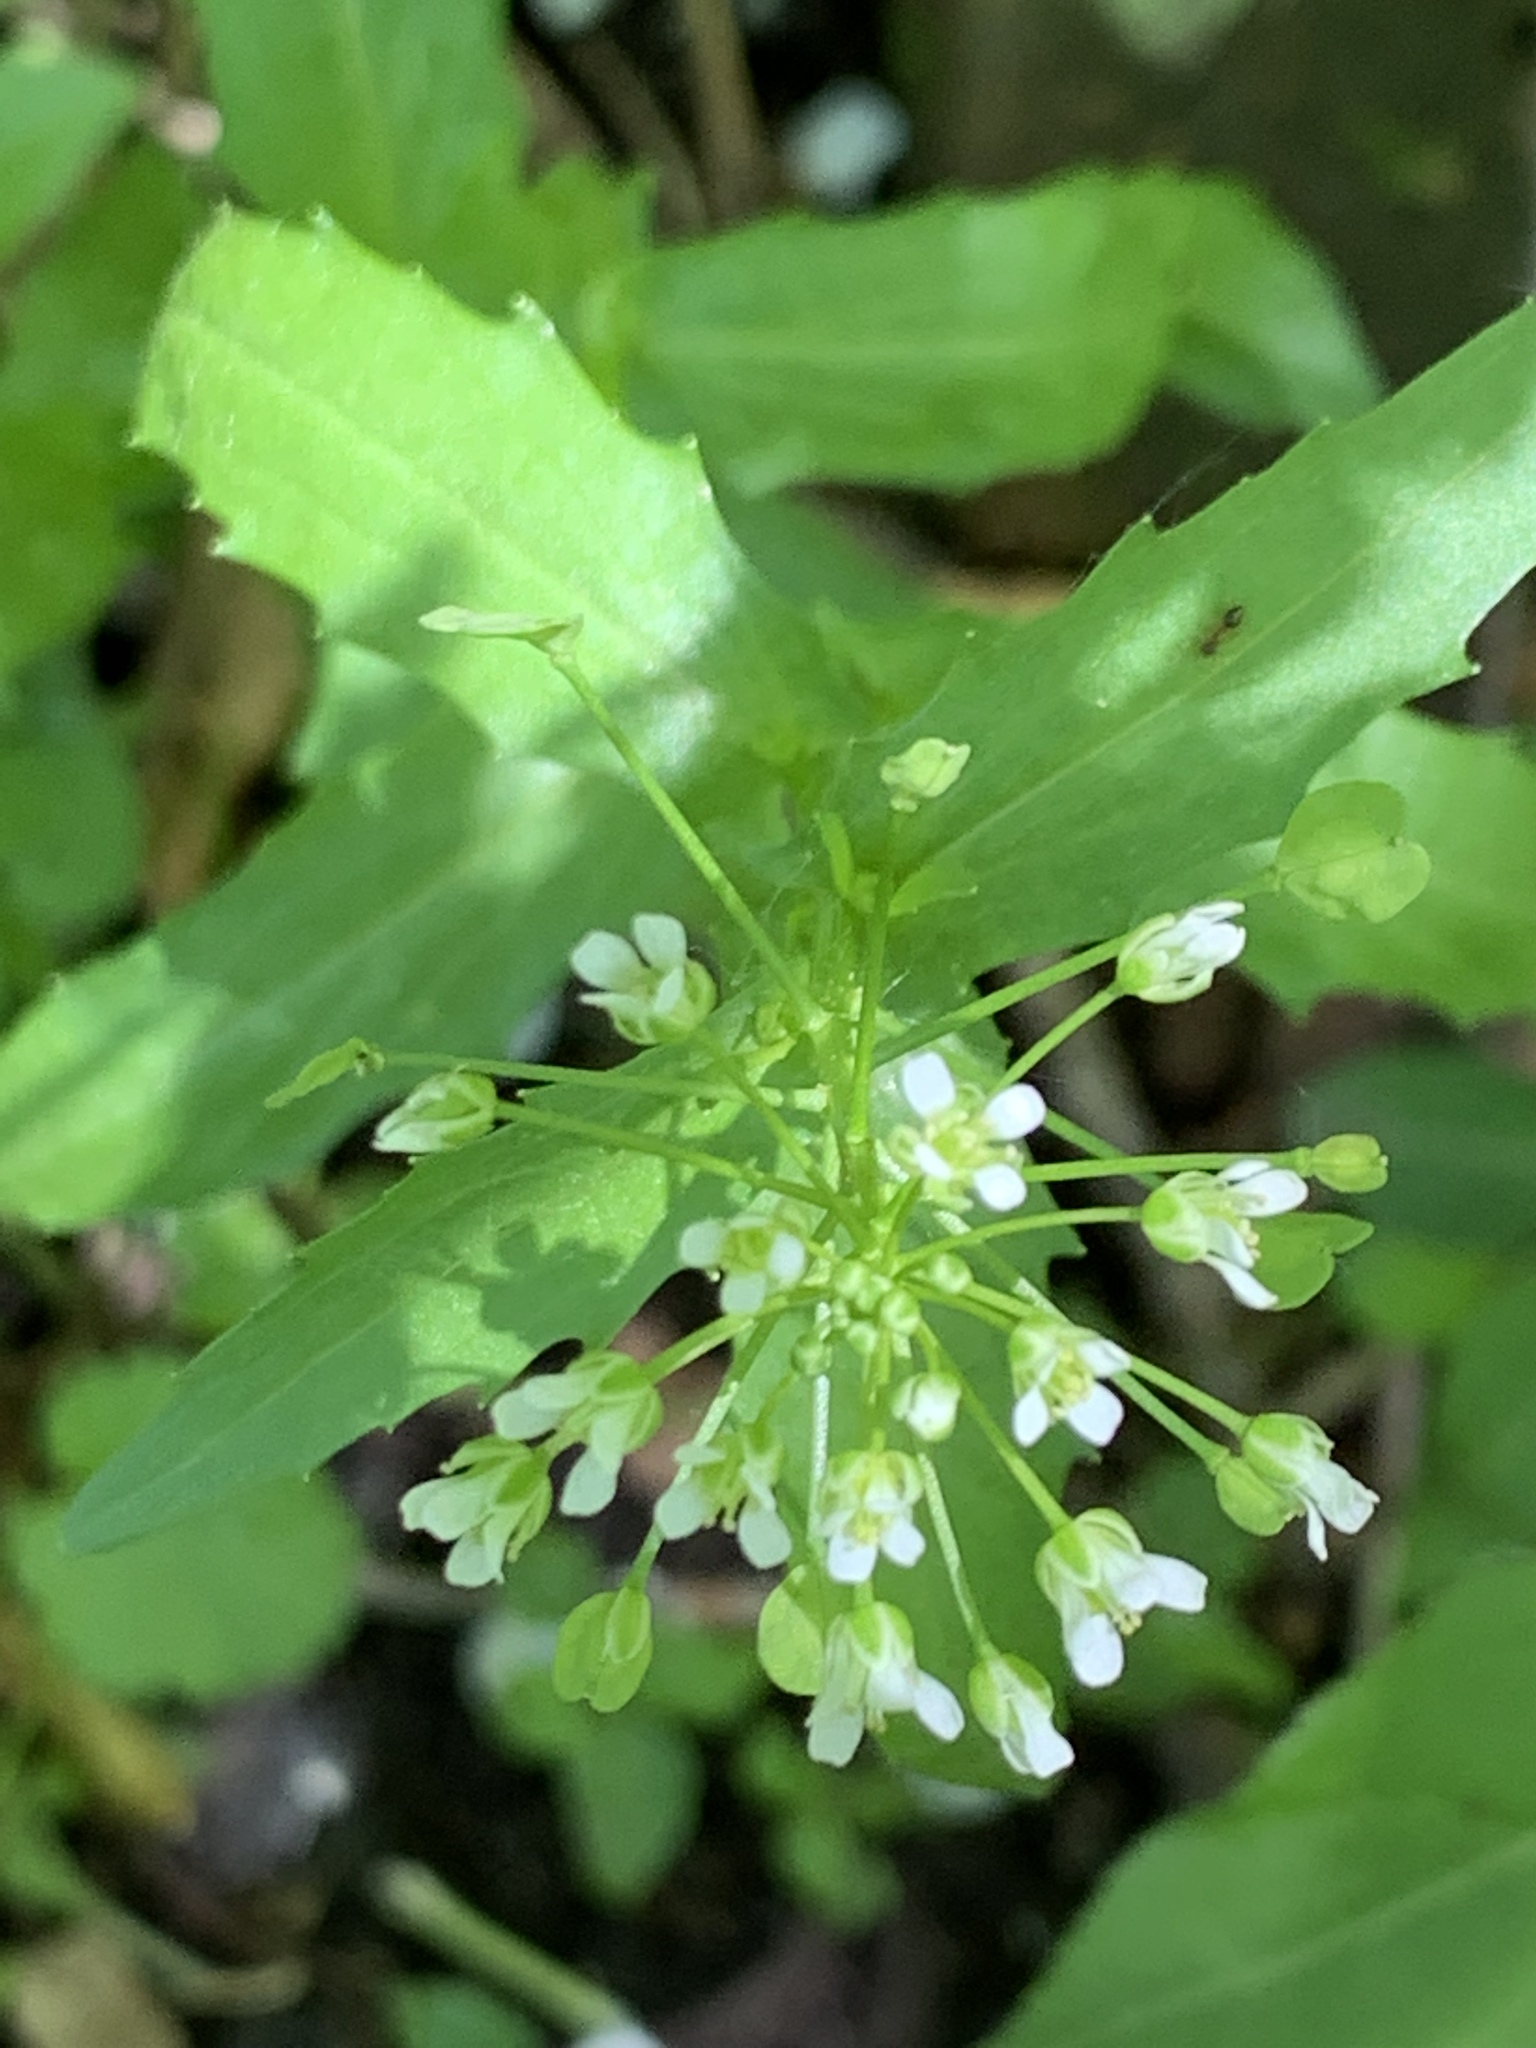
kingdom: Plantae
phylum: Tracheophyta
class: Magnoliopsida
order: Brassicales
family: Brassicaceae
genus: Thlaspi
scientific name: Thlaspi arvense
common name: Field pennycress
